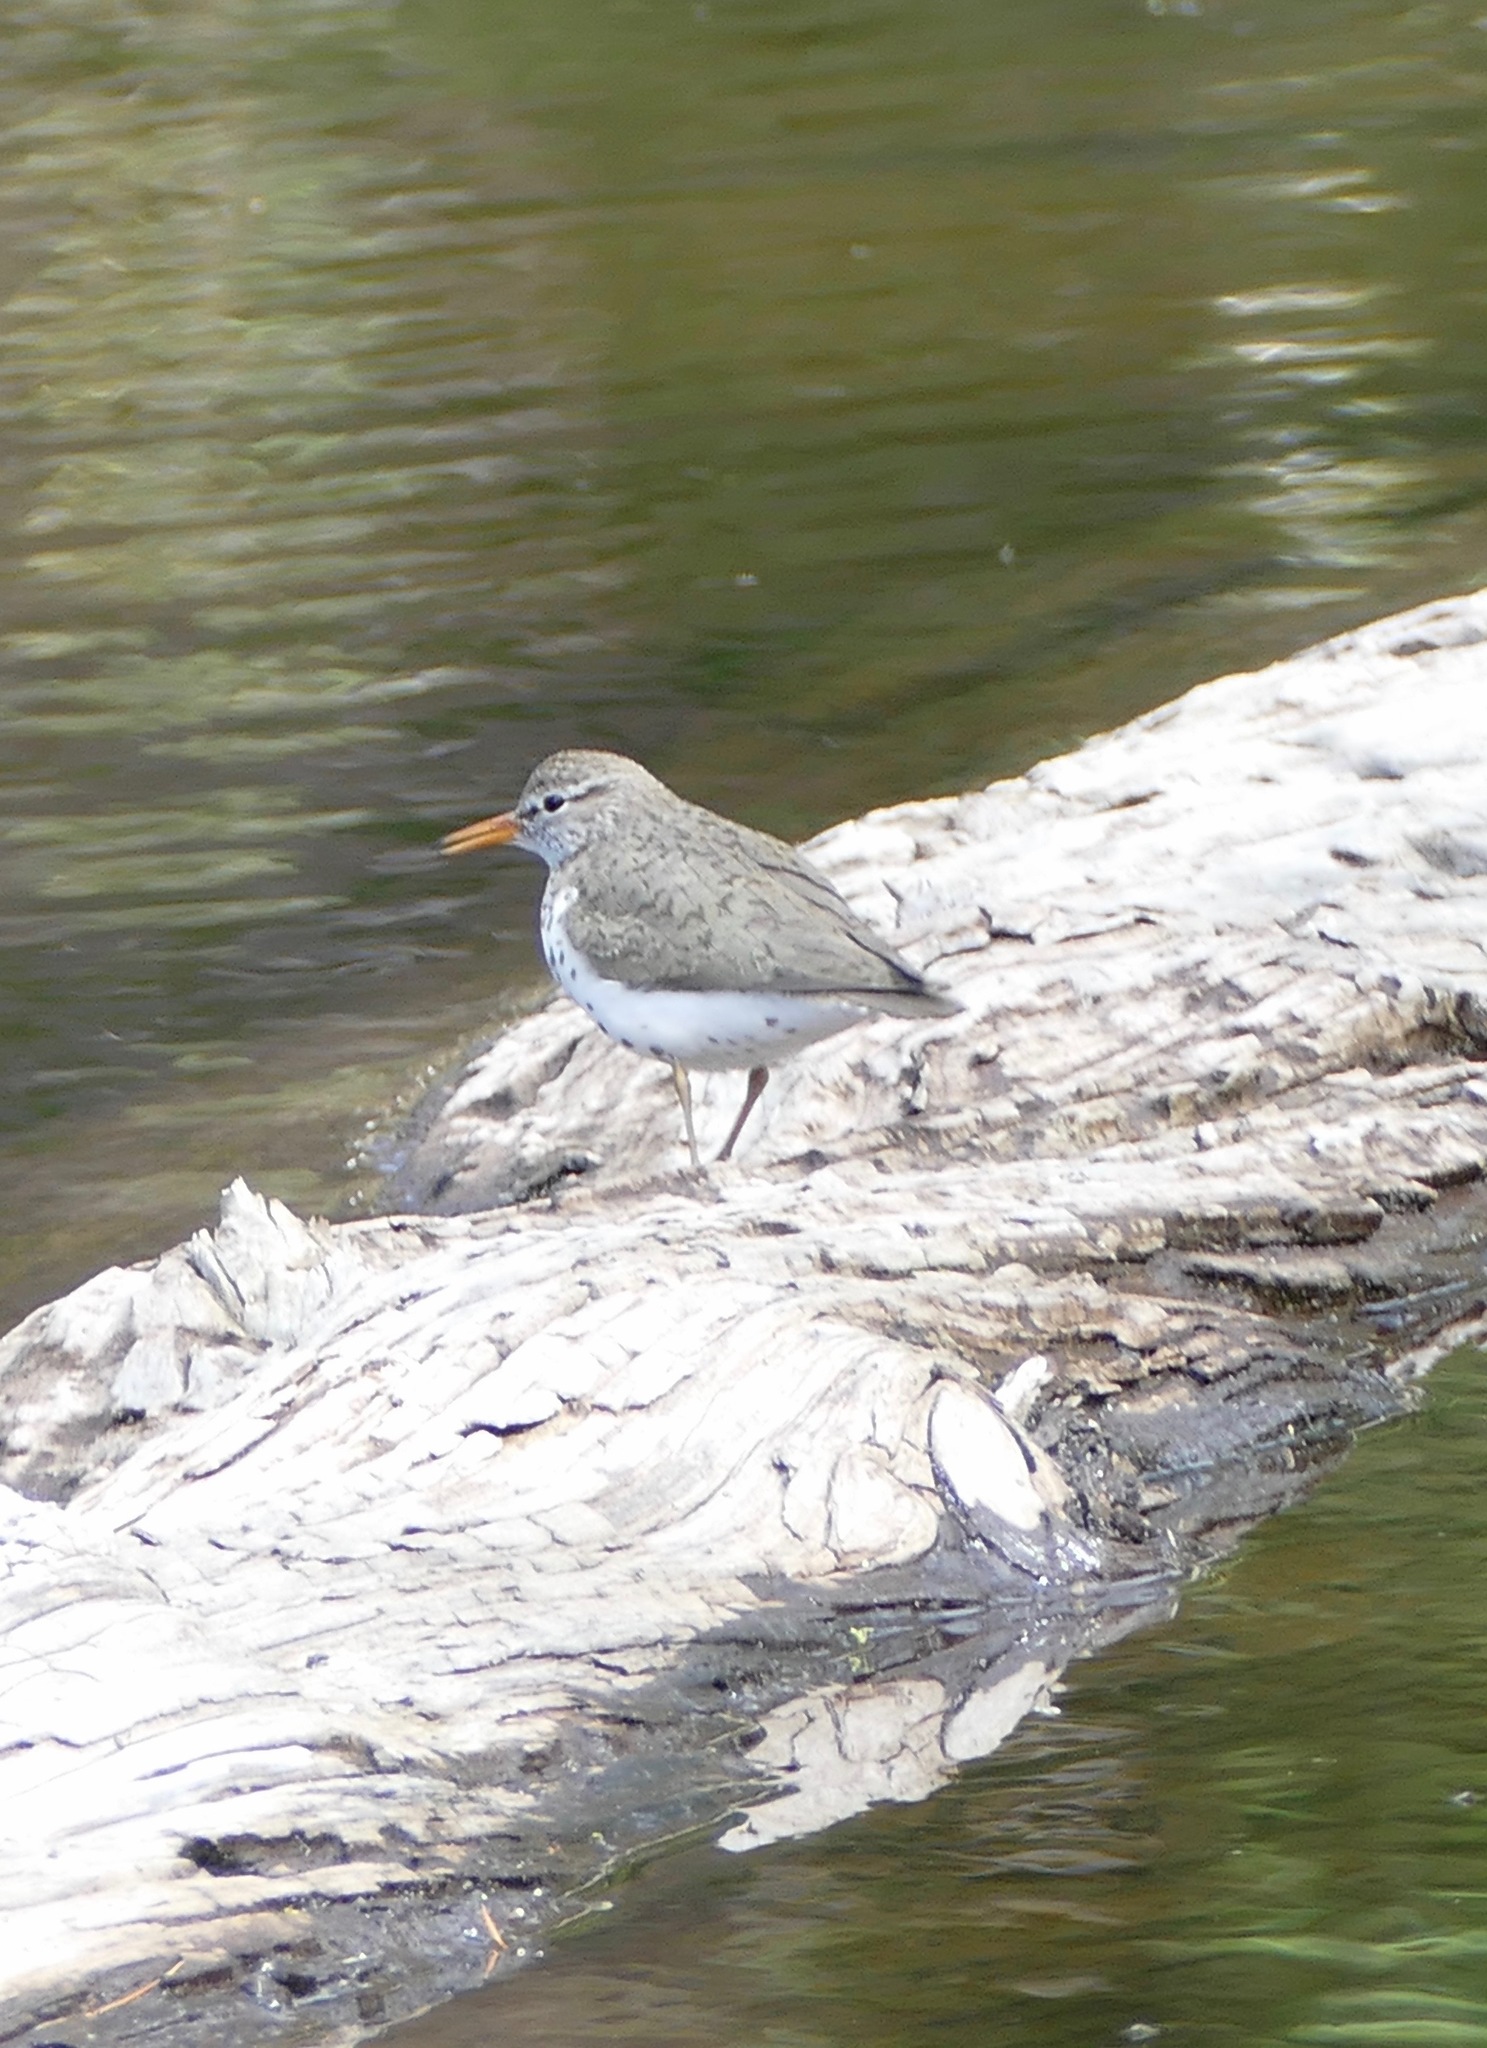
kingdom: Animalia
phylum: Chordata
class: Aves
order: Charadriiformes
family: Scolopacidae
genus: Actitis
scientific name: Actitis macularius
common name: Spotted sandpiper
